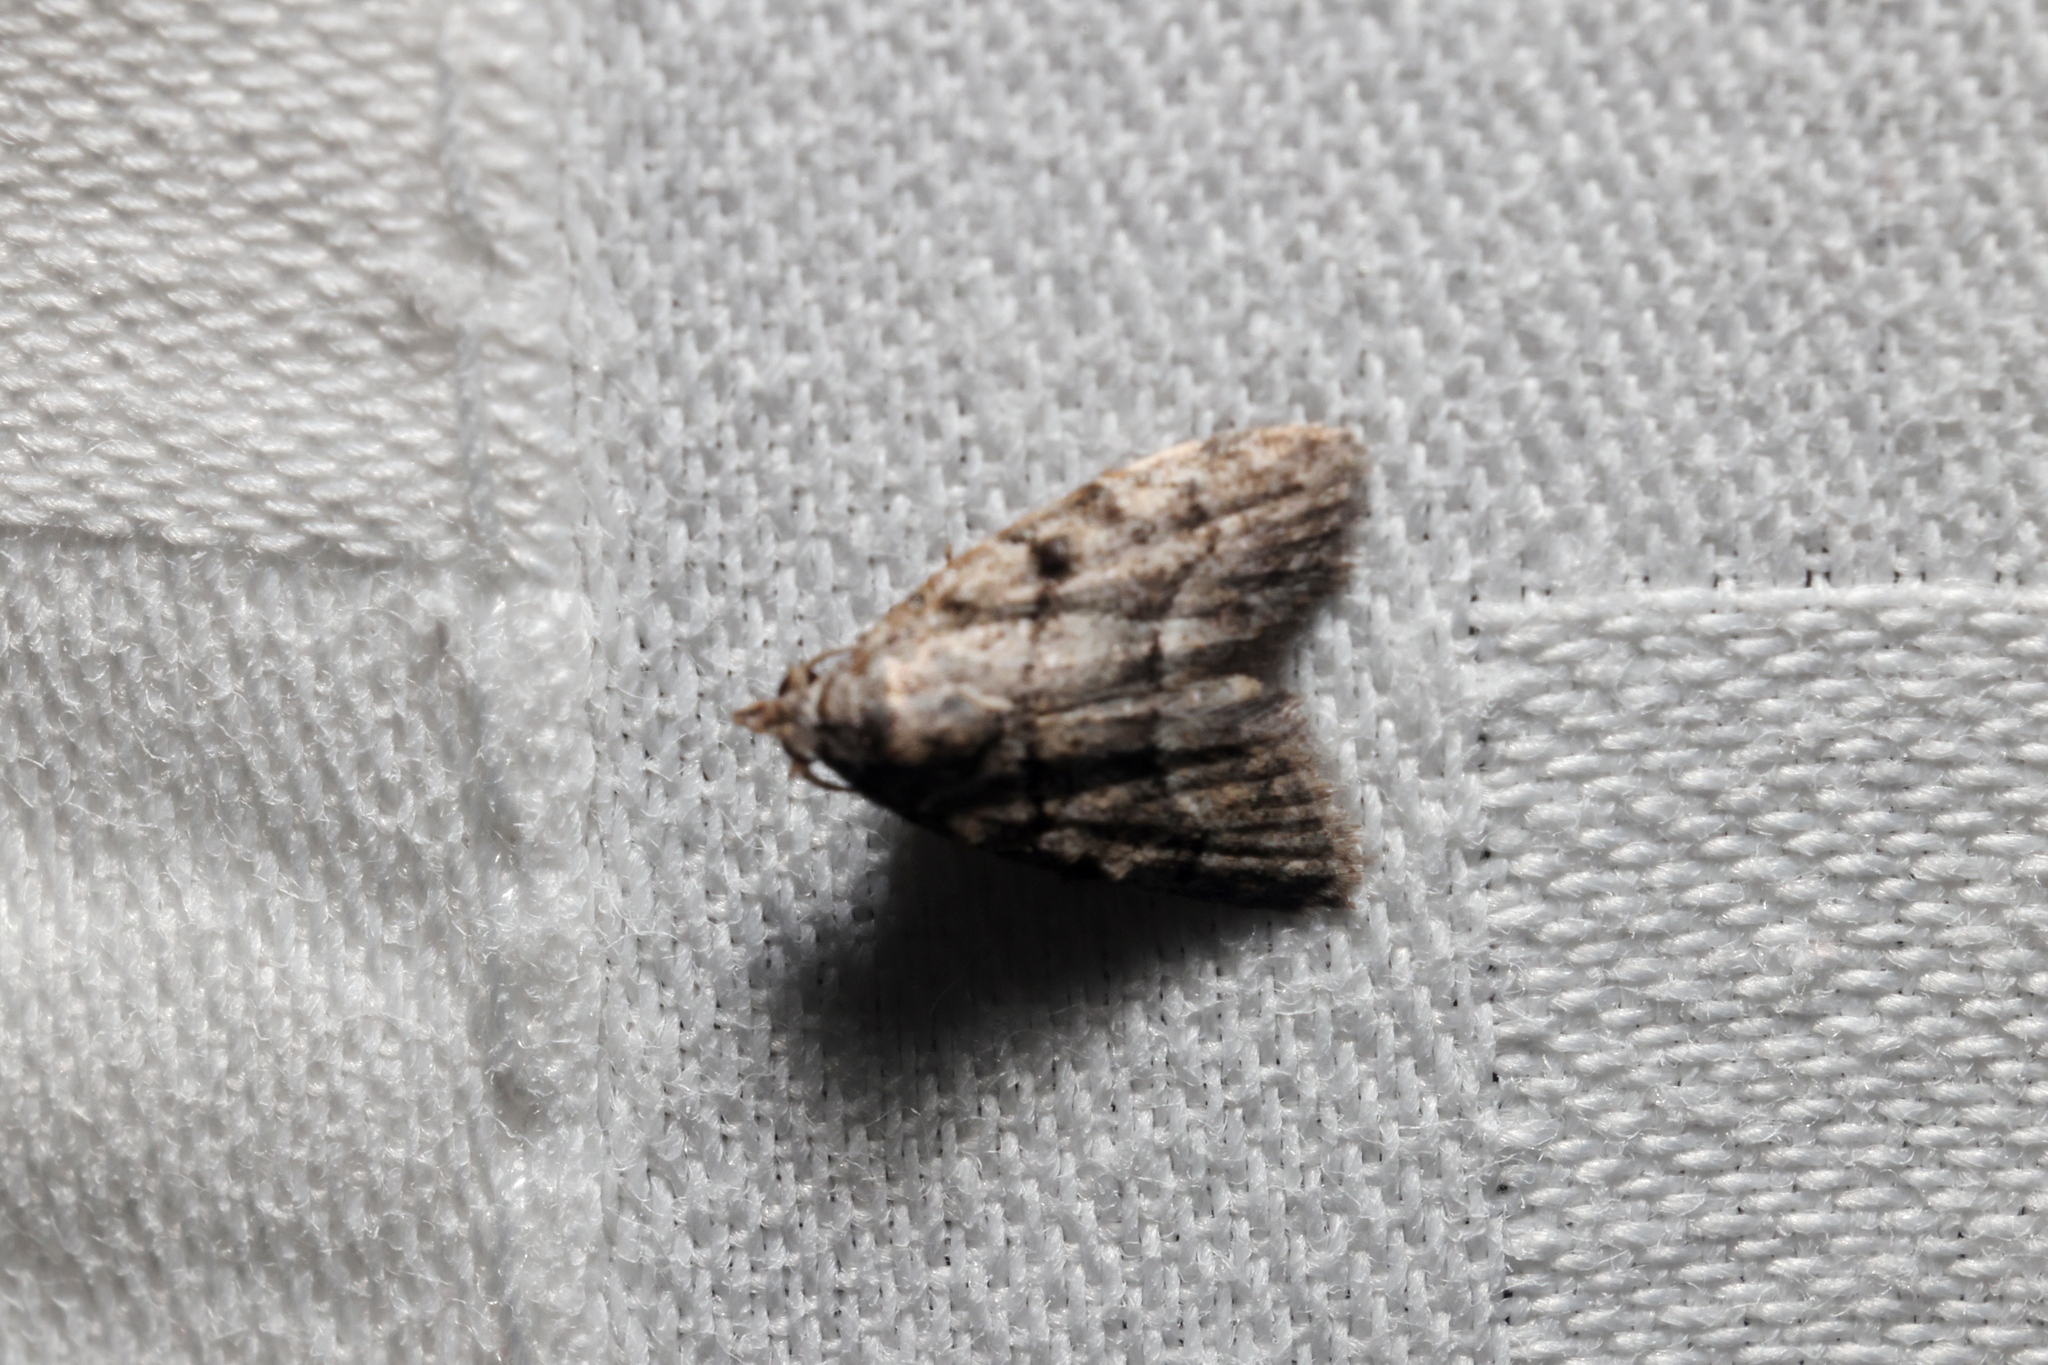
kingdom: Animalia
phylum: Arthropoda
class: Insecta
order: Lepidoptera
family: Nolidae
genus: Inouenola
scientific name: Inouenola pallescens
